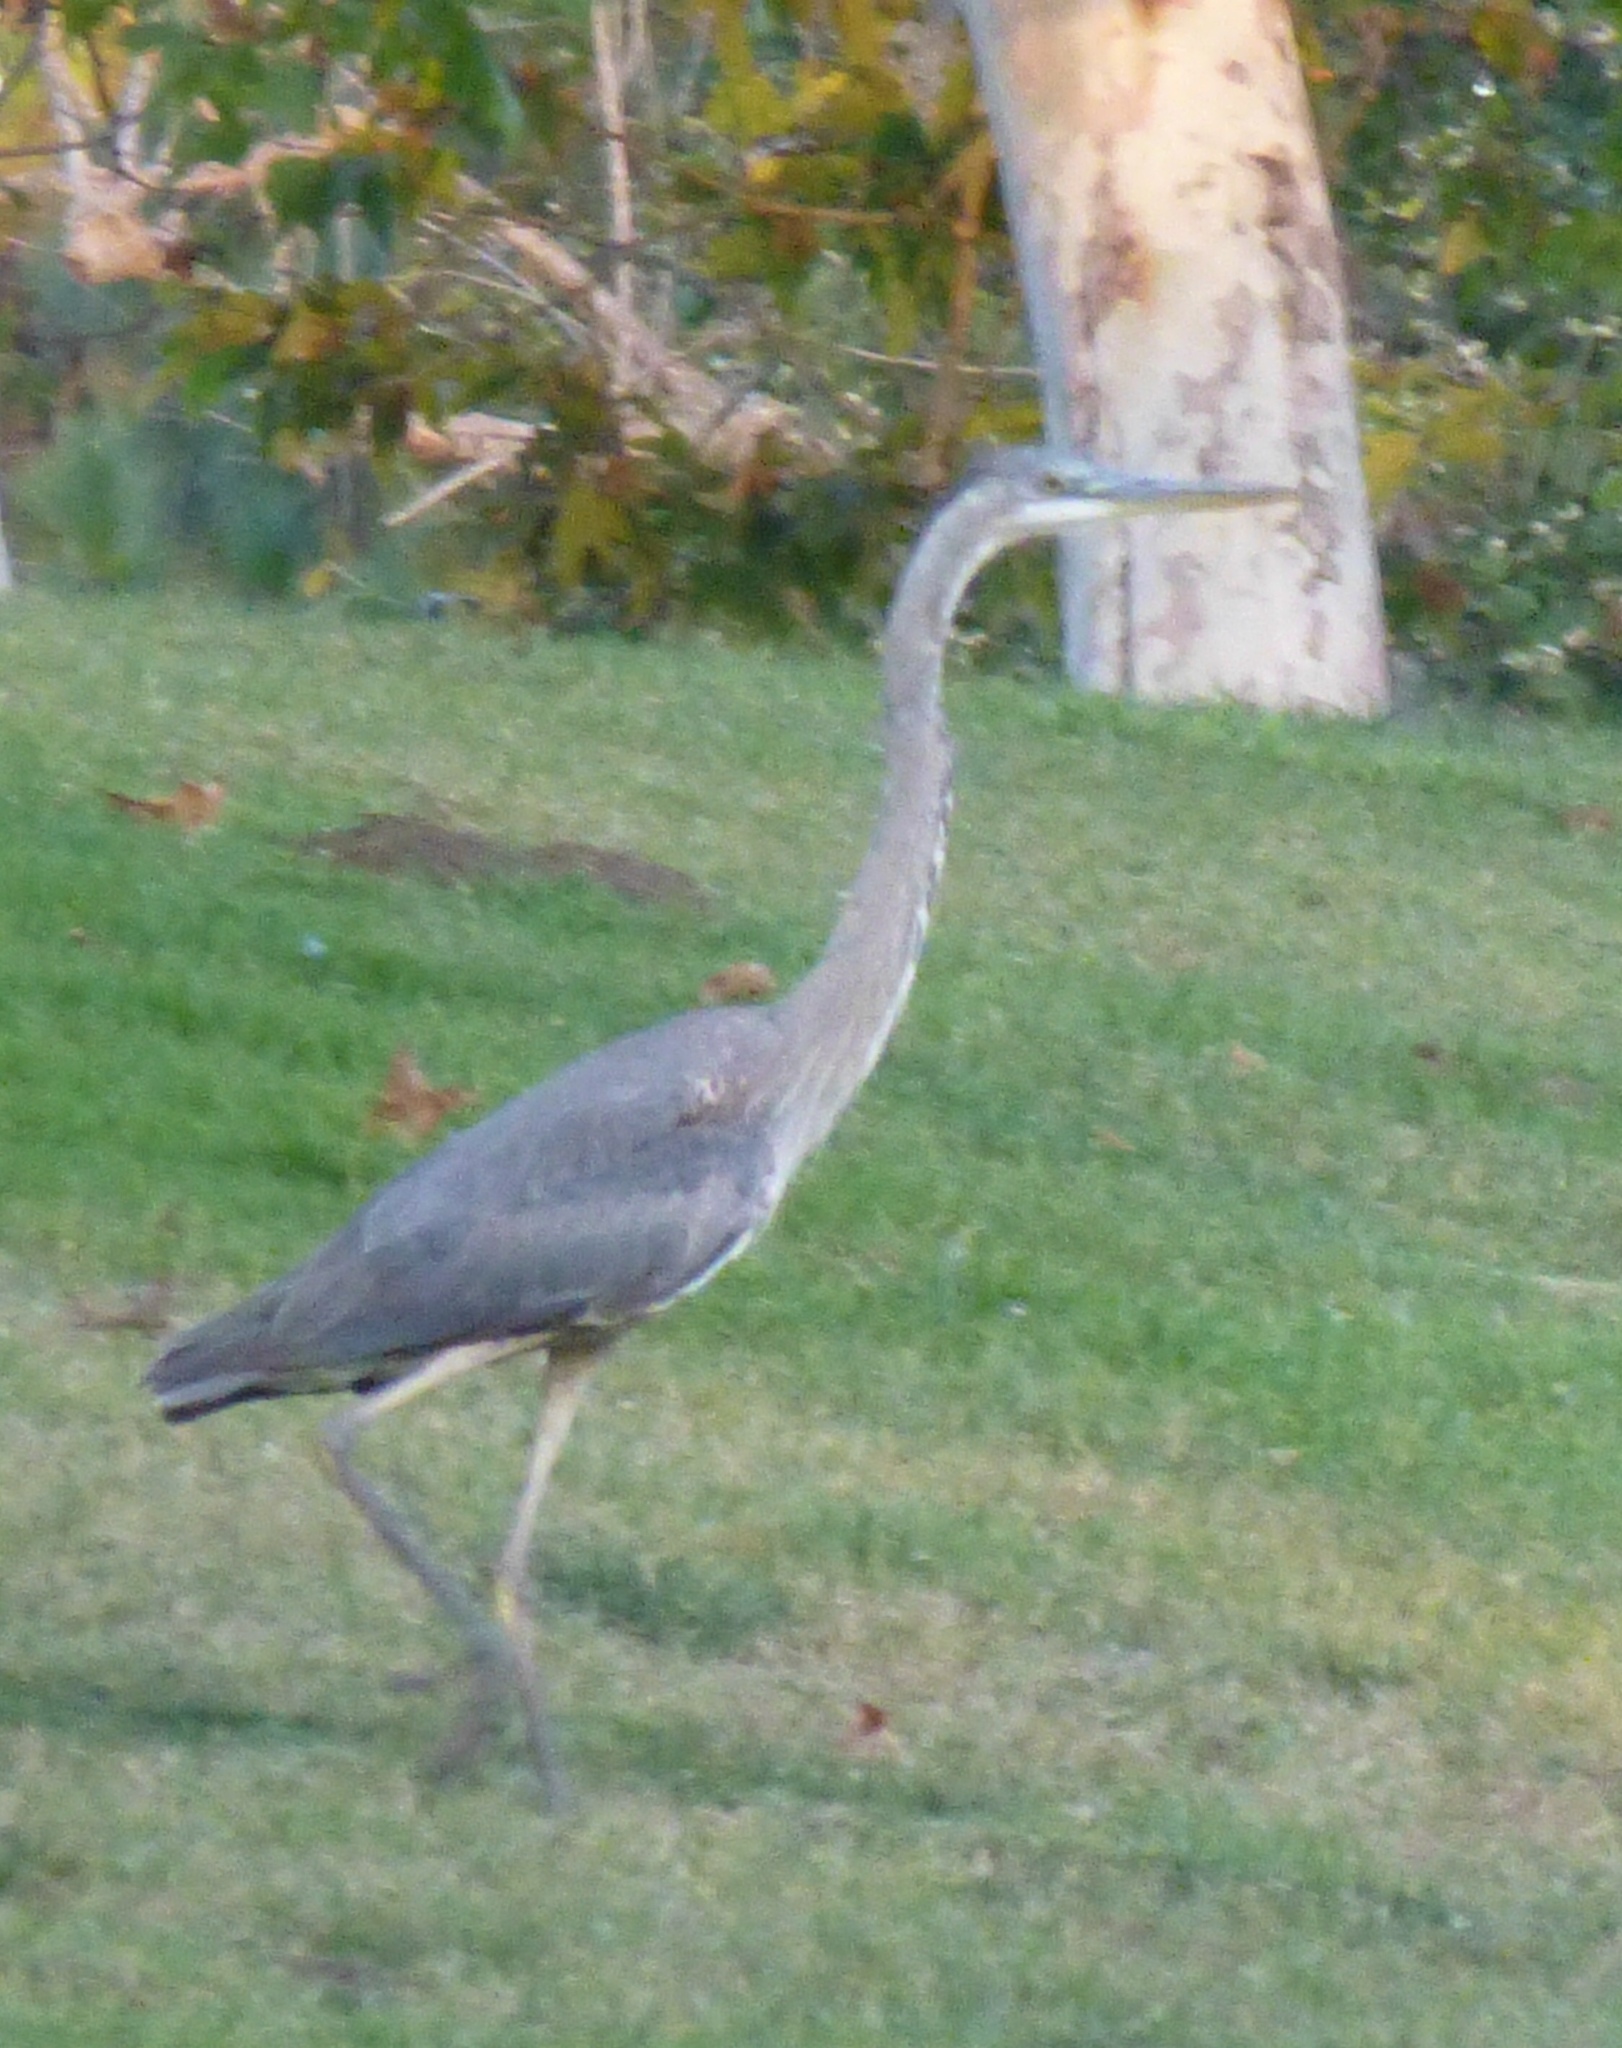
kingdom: Animalia
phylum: Chordata
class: Aves
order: Pelecaniformes
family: Ardeidae
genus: Ardea
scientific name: Ardea herodias
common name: Great blue heron
